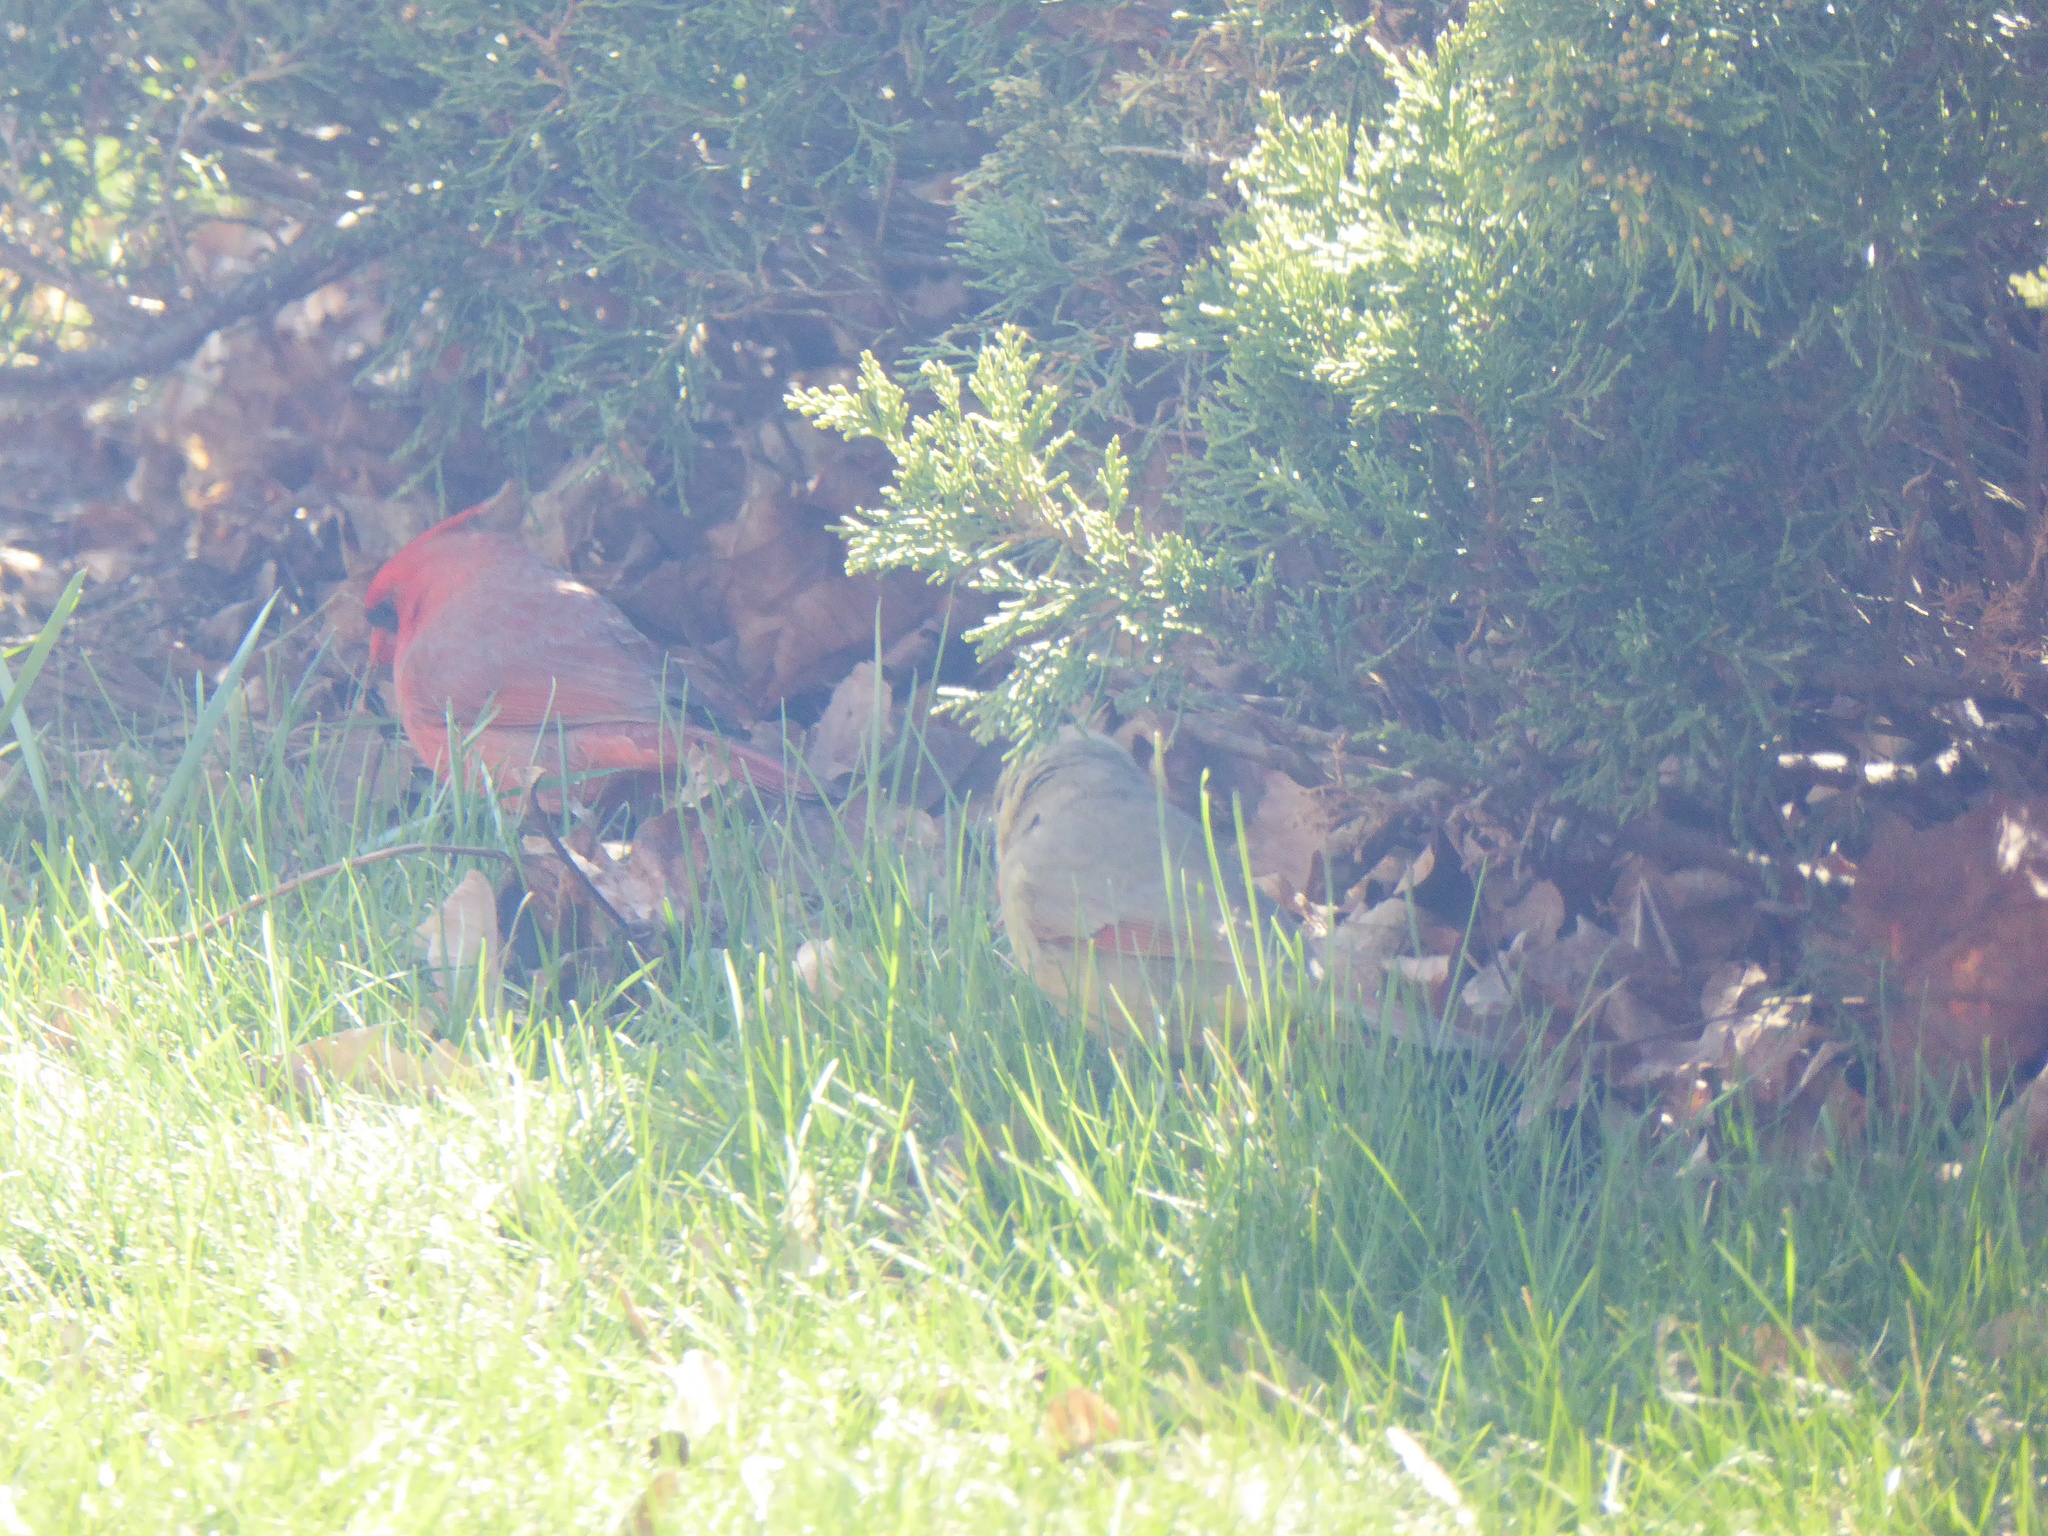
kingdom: Animalia
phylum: Chordata
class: Aves
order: Passeriformes
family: Cardinalidae
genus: Cardinalis
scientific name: Cardinalis cardinalis
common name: Northern cardinal
